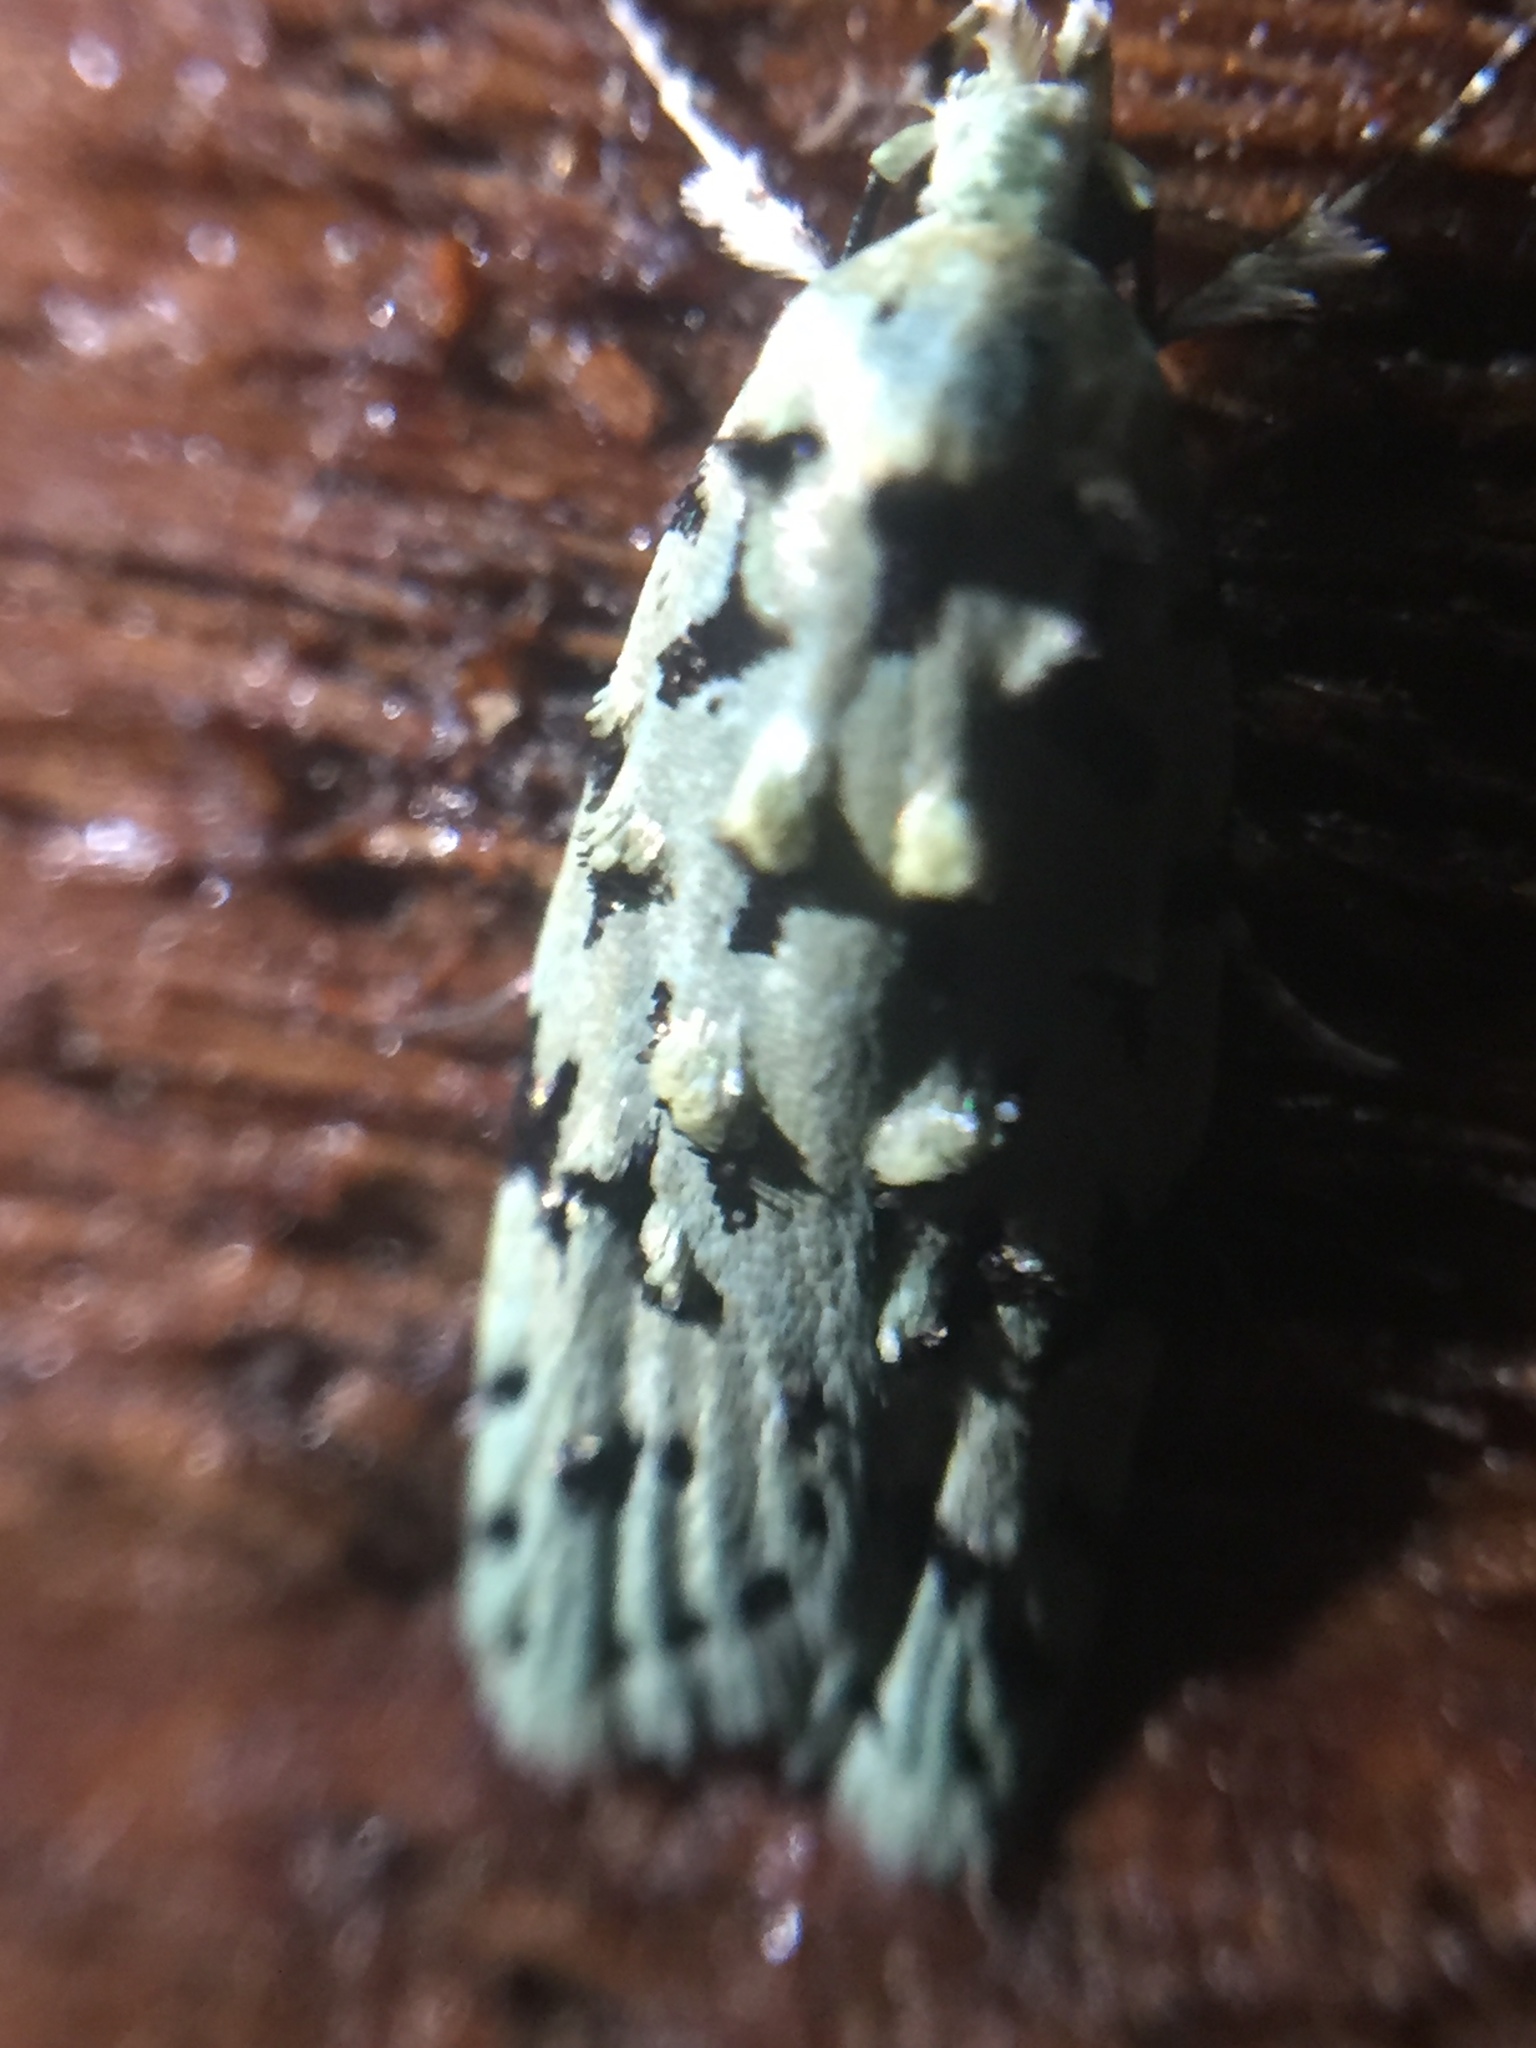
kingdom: Animalia
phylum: Arthropoda
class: Insecta
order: Lepidoptera
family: Oecophoridae
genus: Izatha
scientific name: Izatha peroneanella
